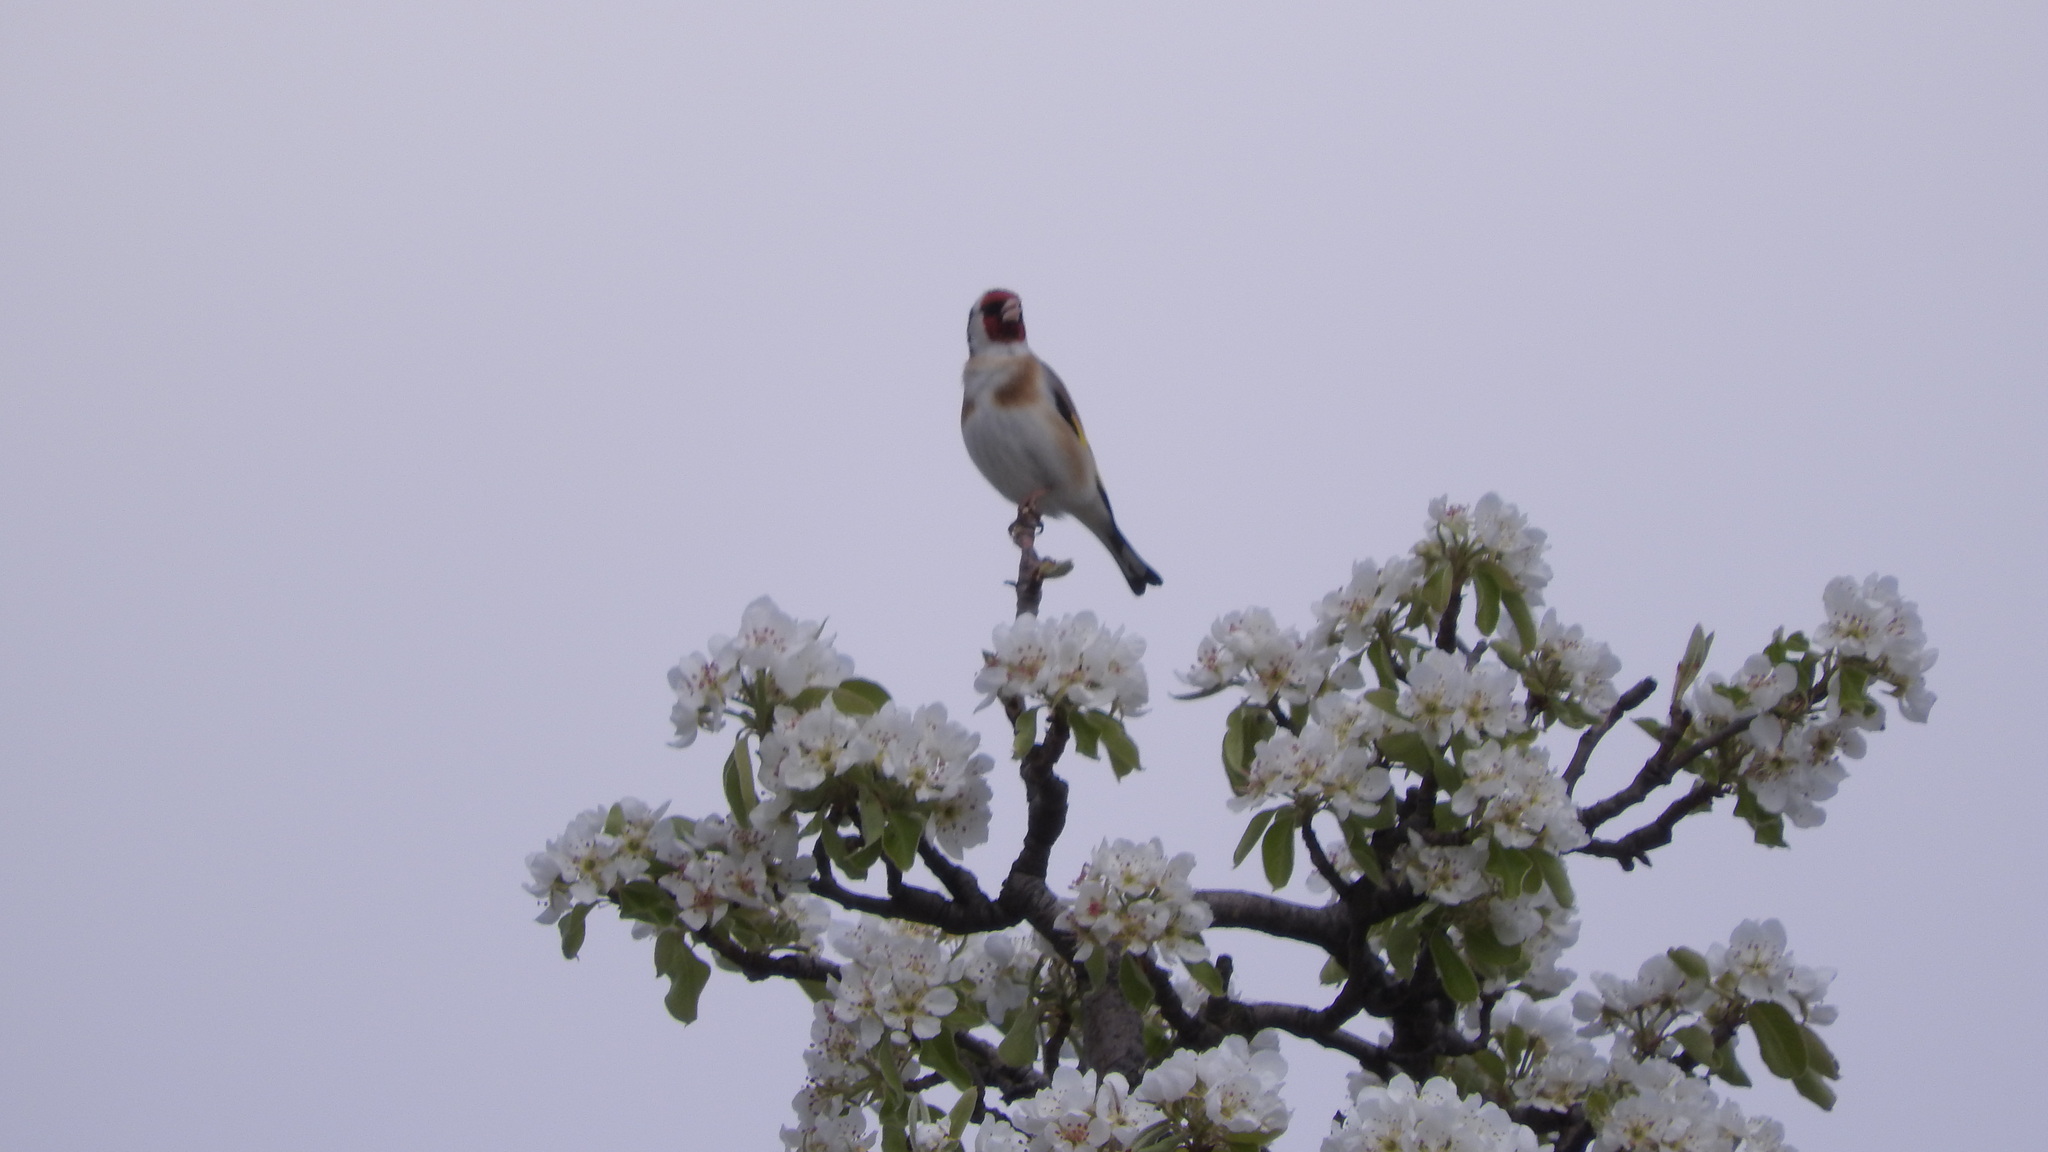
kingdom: Animalia
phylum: Chordata
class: Aves
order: Passeriformes
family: Fringillidae
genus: Carduelis
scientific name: Carduelis carduelis
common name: European goldfinch
